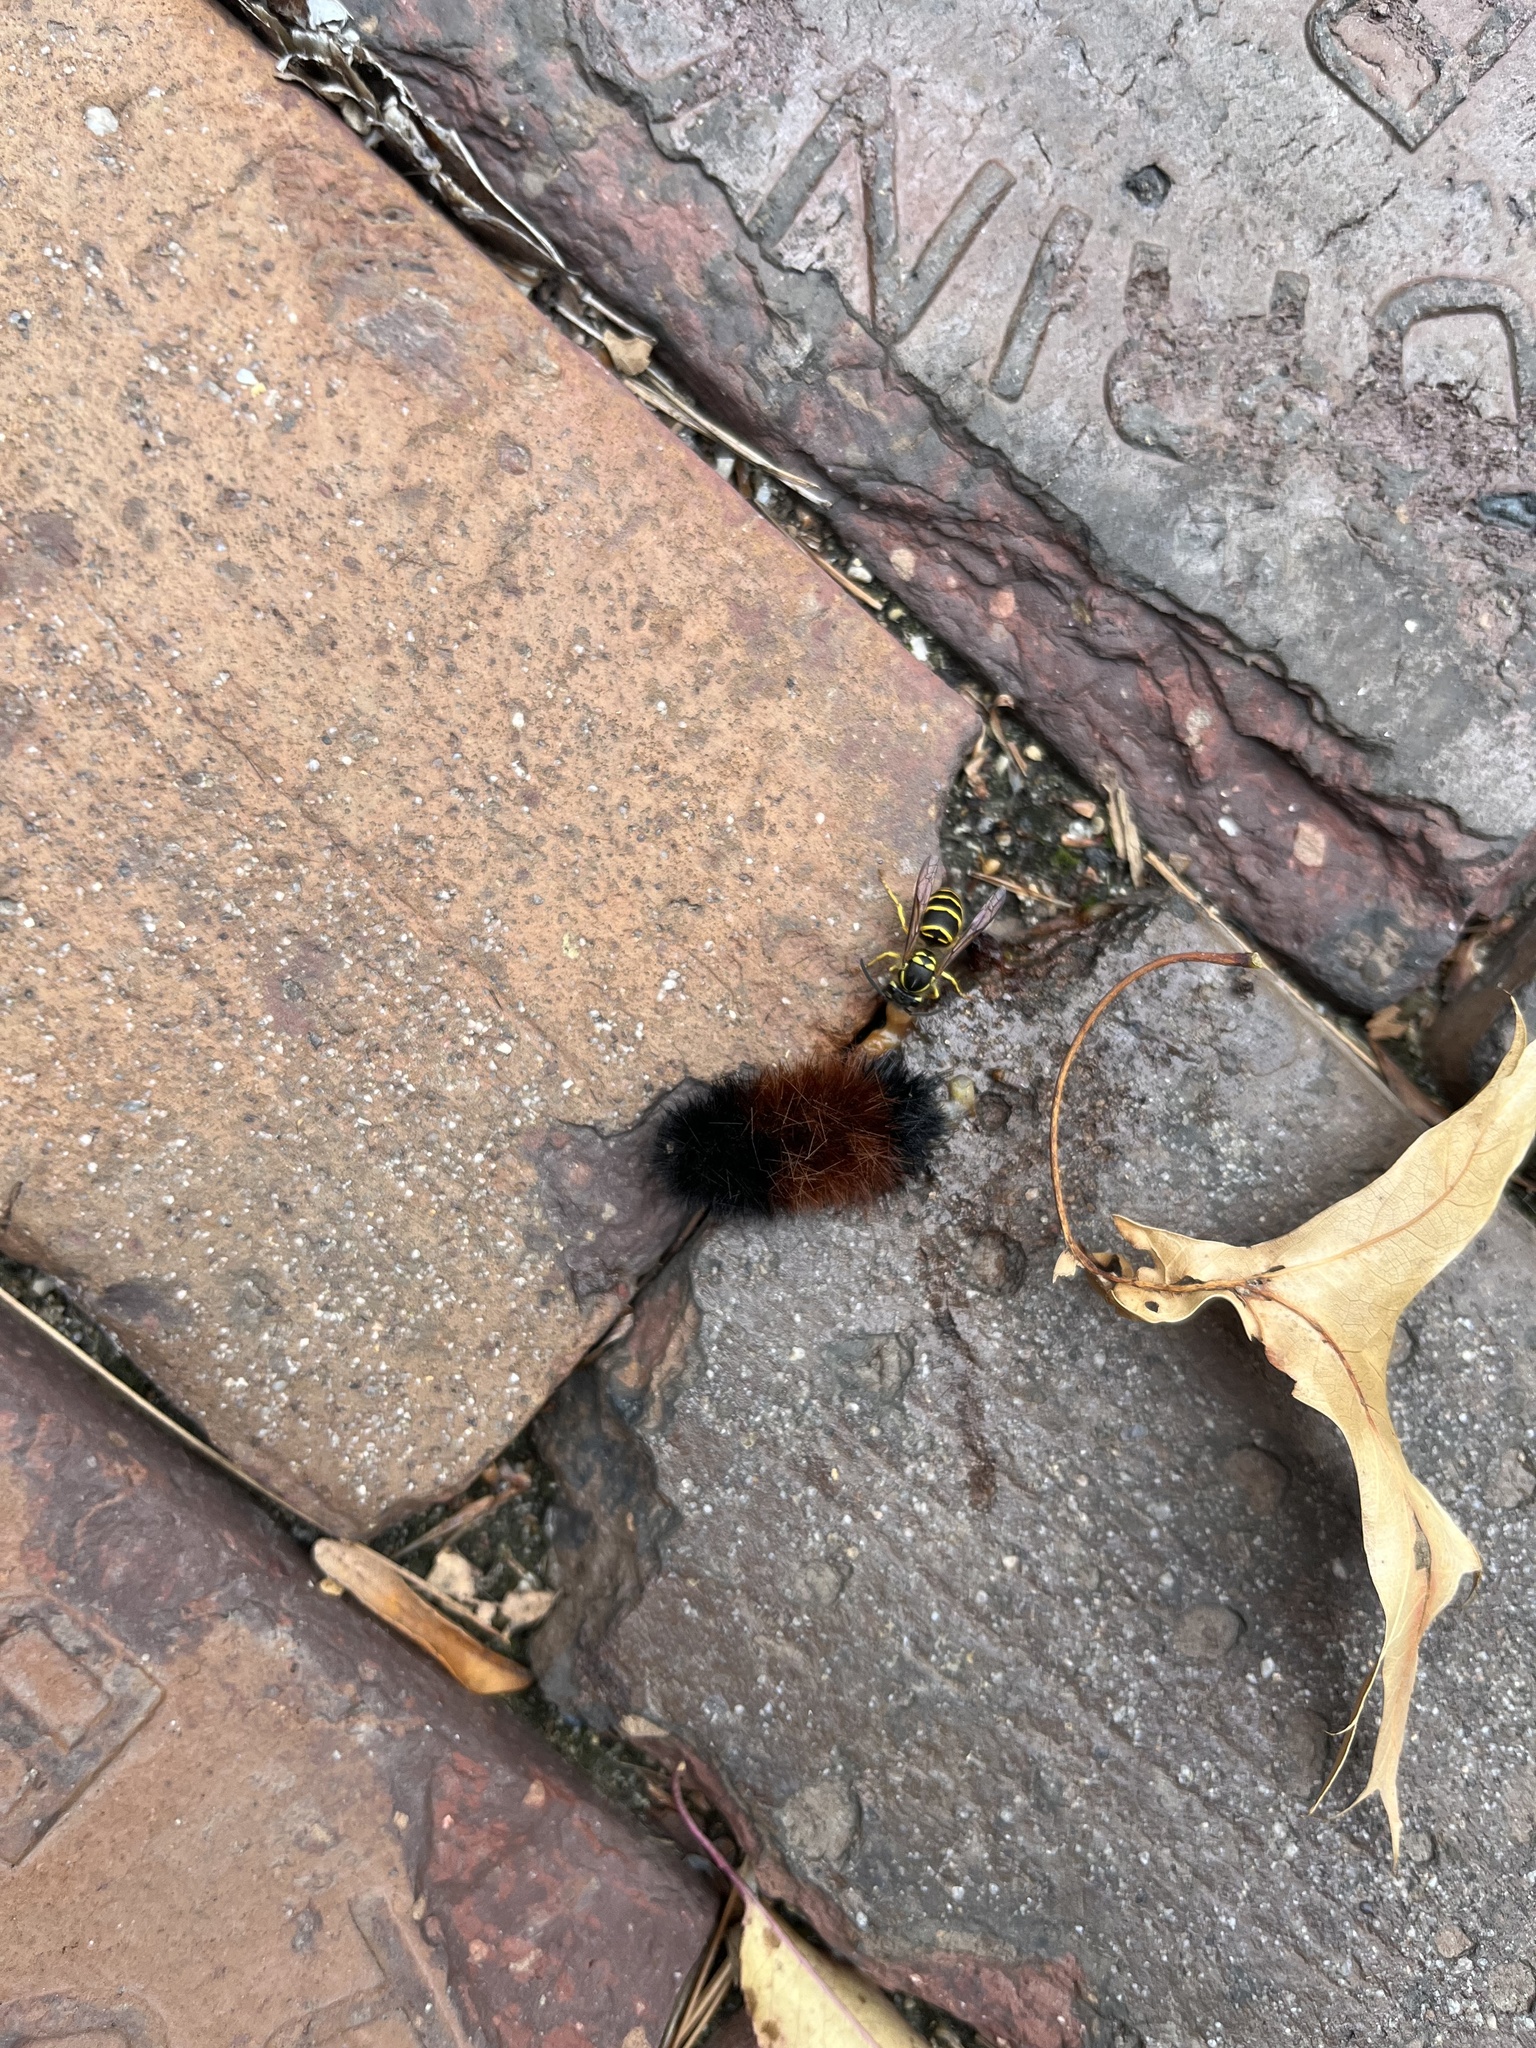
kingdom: Animalia
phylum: Arthropoda
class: Insecta
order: Lepidoptera
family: Erebidae
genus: Pyrrharctia
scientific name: Pyrrharctia isabella
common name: Isabella tiger moth
